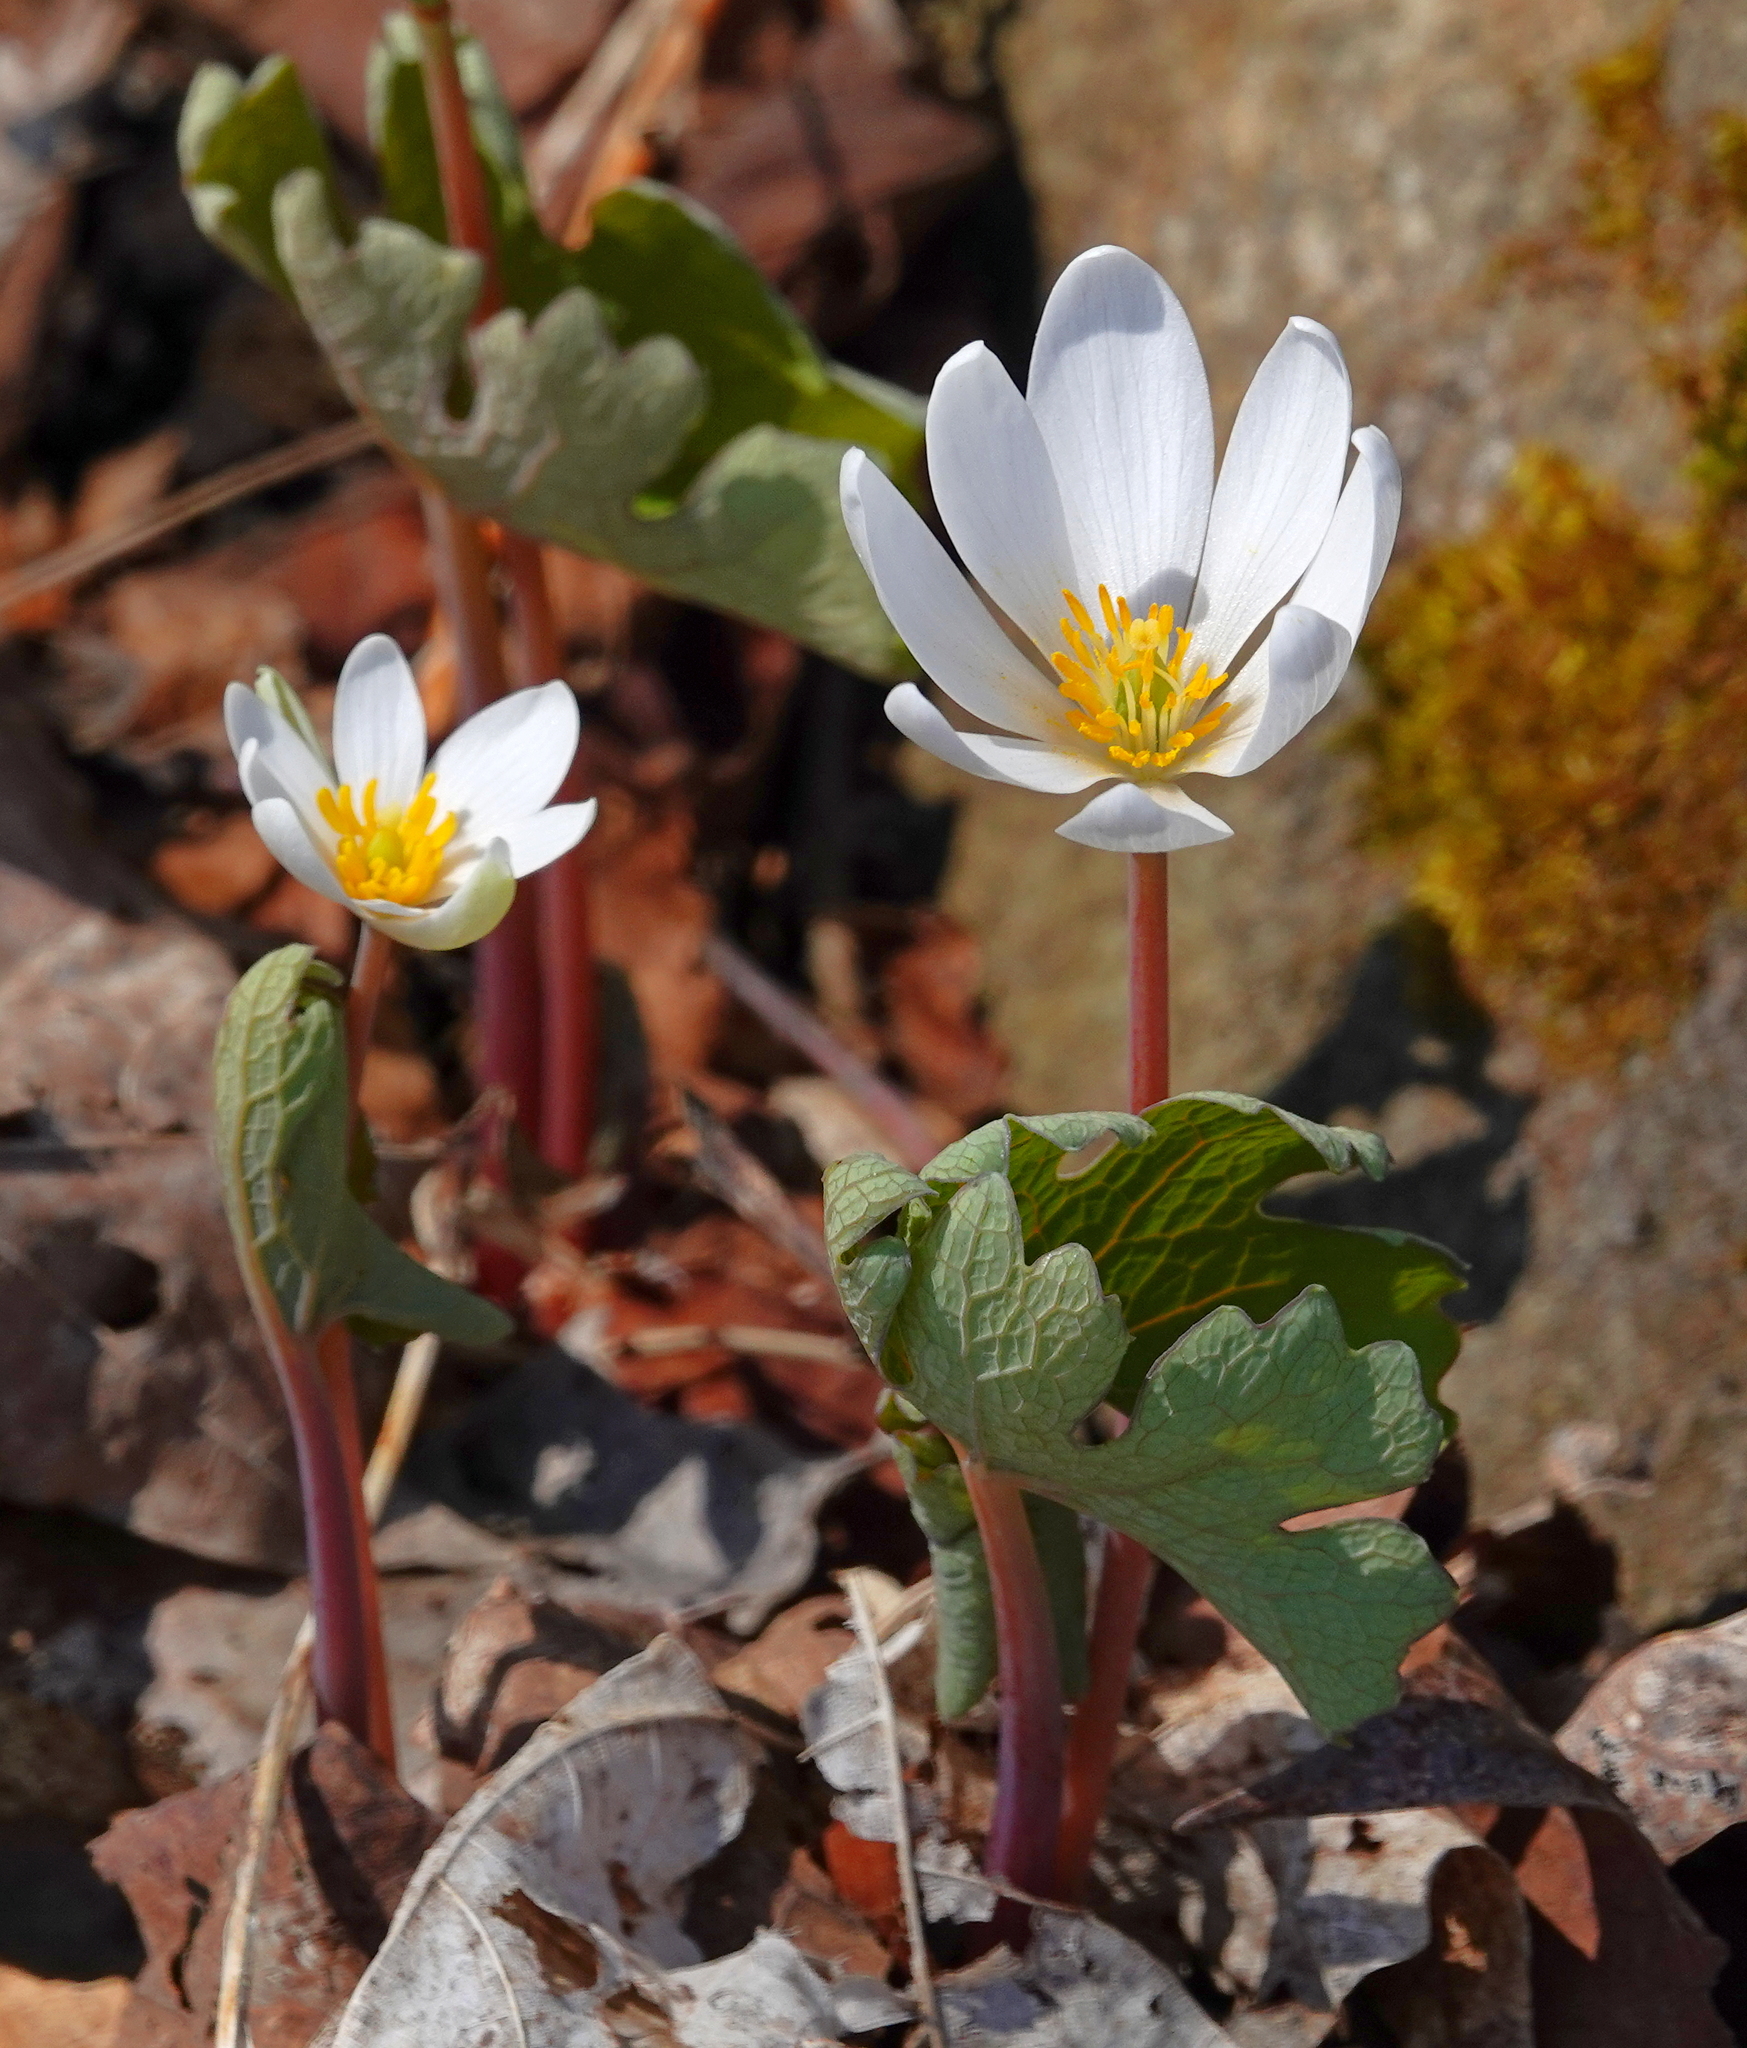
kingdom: Plantae
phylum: Tracheophyta
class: Magnoliopsida
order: Ranunculales
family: Papaveraceae
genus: Sanguinaria
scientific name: Sanguinaria canadensis
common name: Bloodroot
